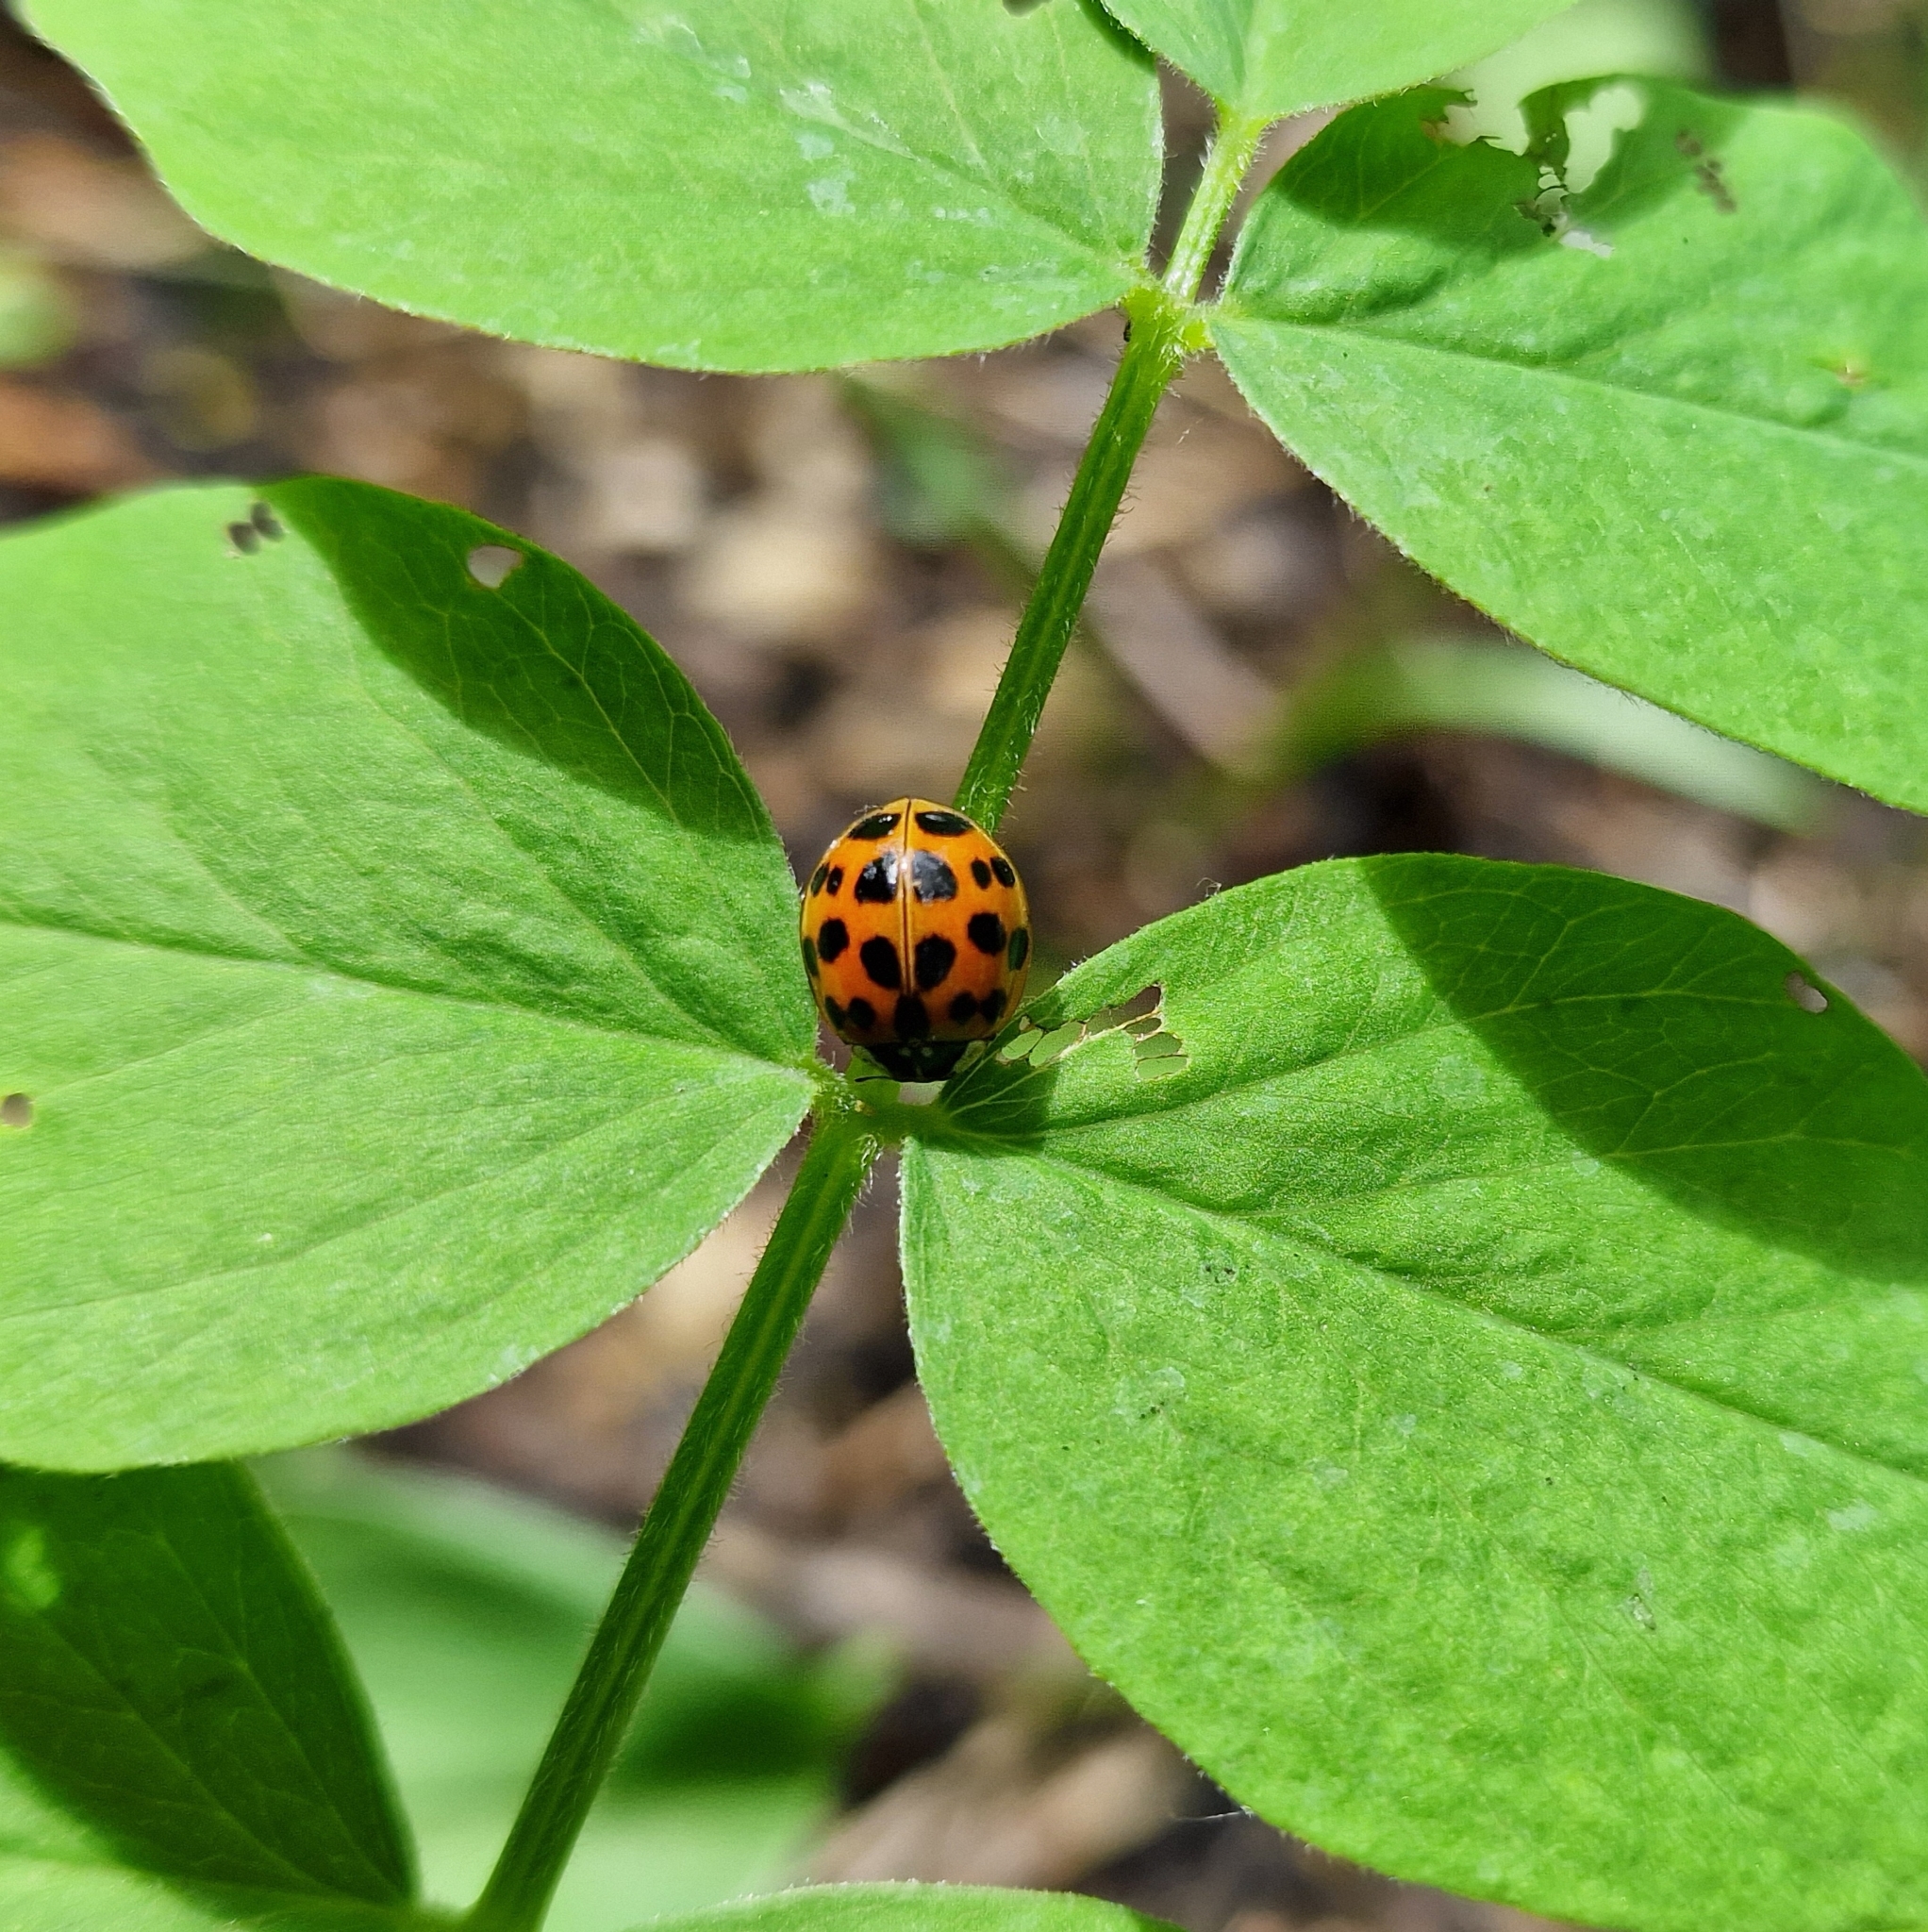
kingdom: Animalia
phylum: Arthropoda
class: Insecta
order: Coleoptera
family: Coccinellidae
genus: Harmonia
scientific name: Harmonia axyridis
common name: Harlequin ladybird
